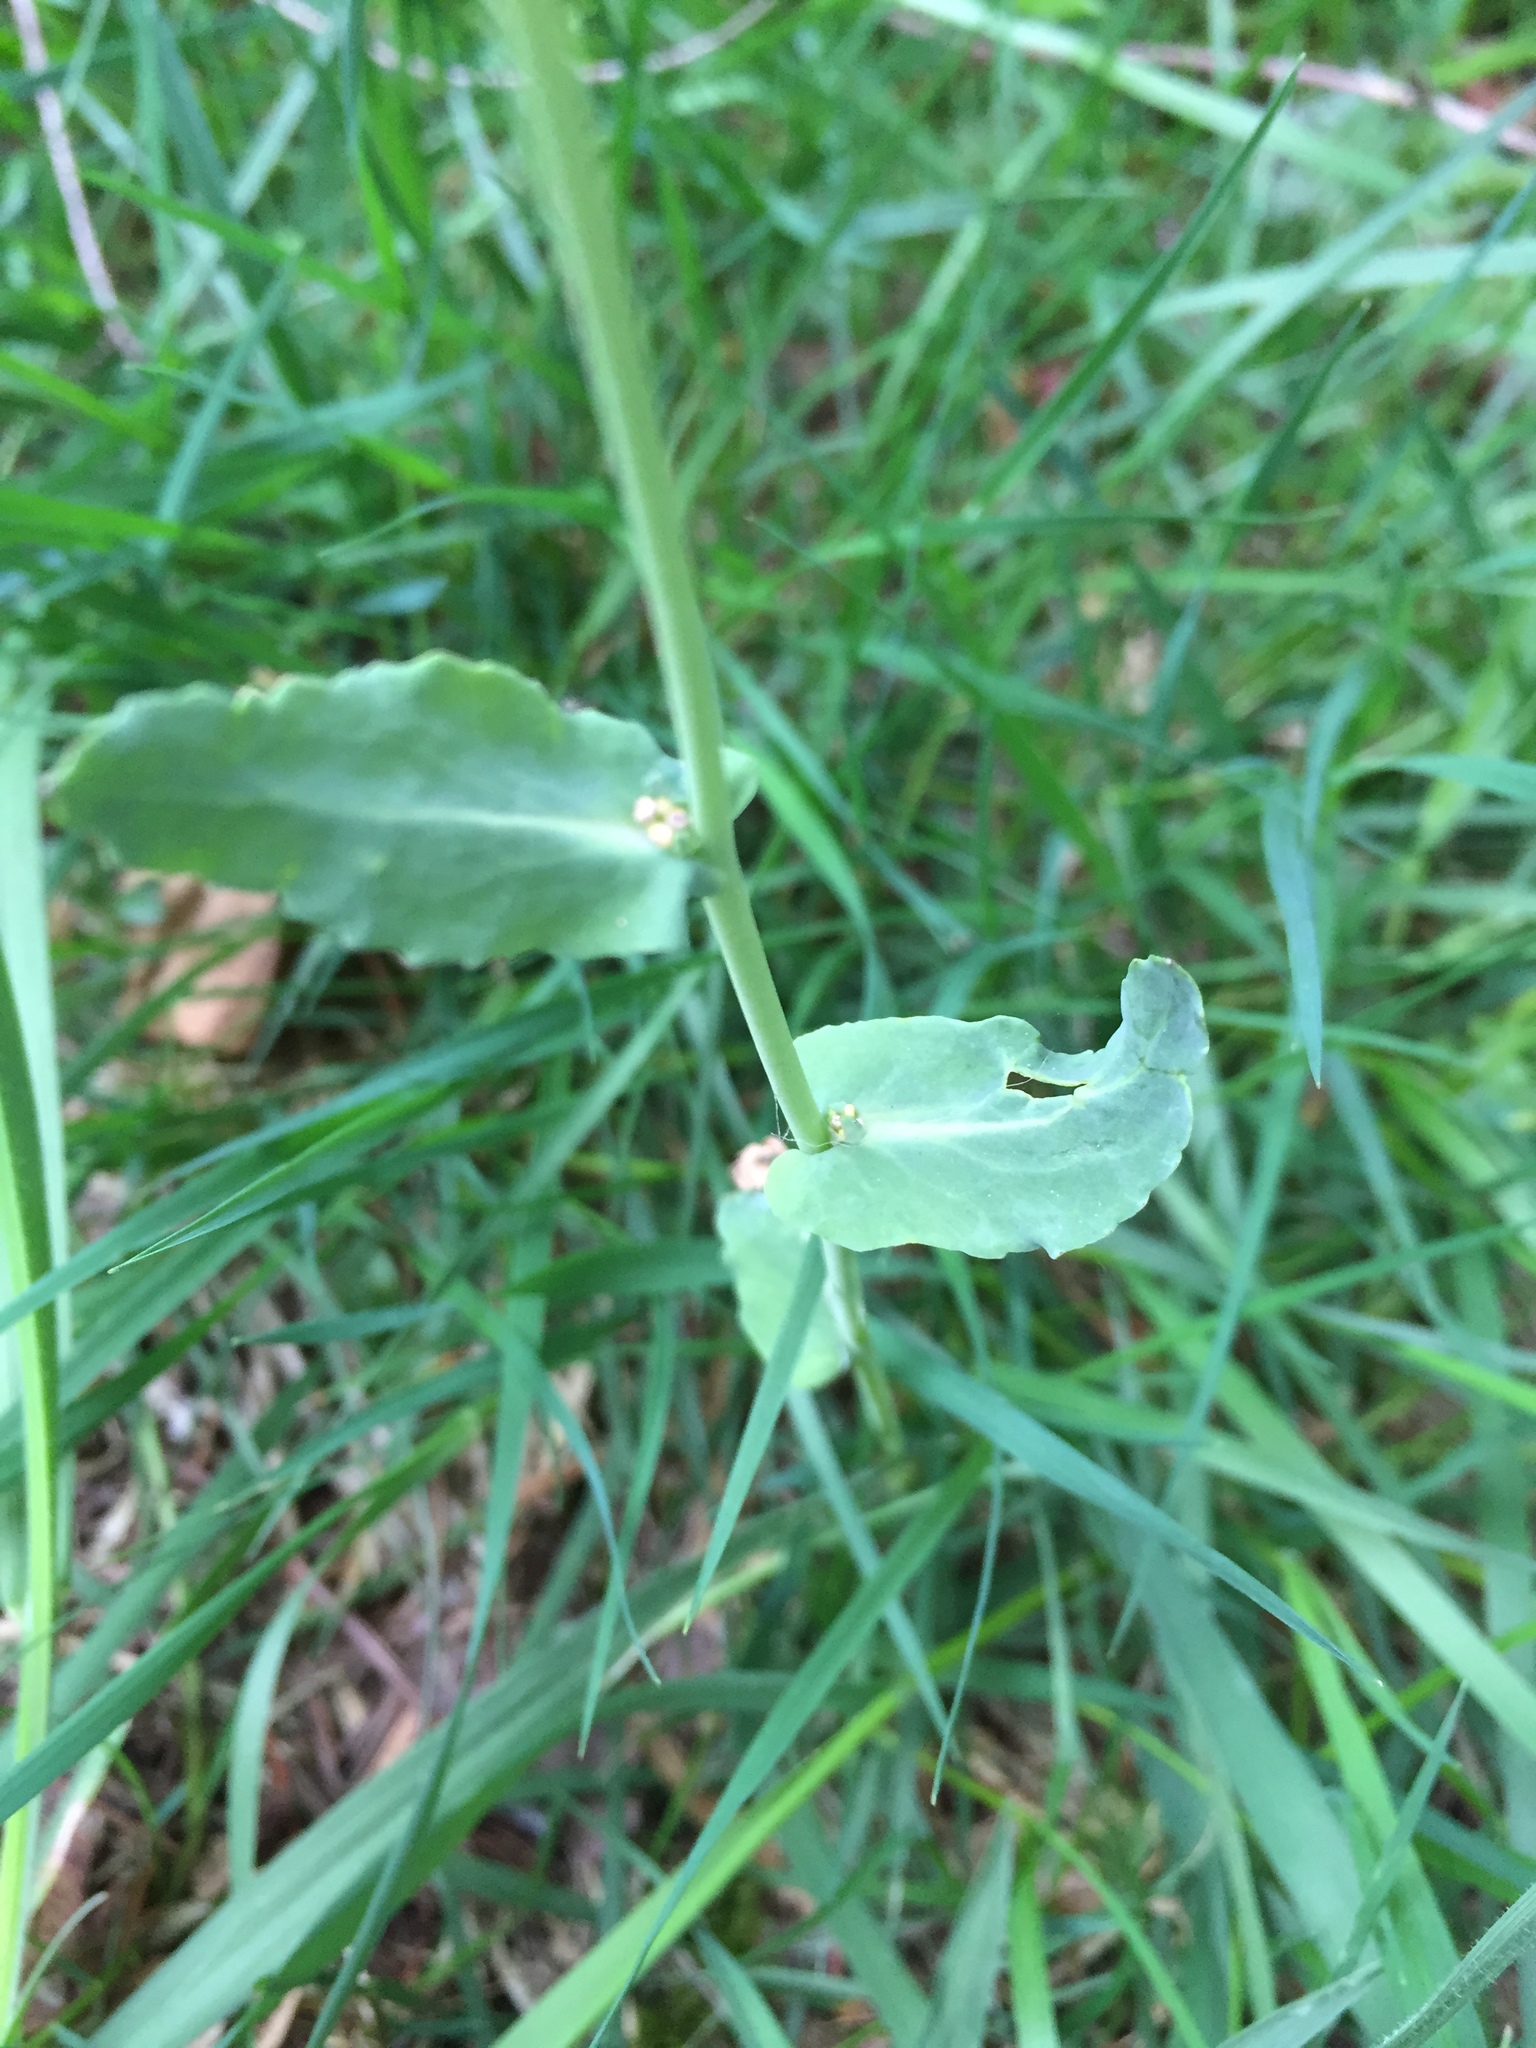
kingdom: Plantae
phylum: Tracheophyta
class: Magnoliopsida
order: Brassicales
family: Brassicaceae
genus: Brassica
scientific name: Brassica rapa
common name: Field mustard
